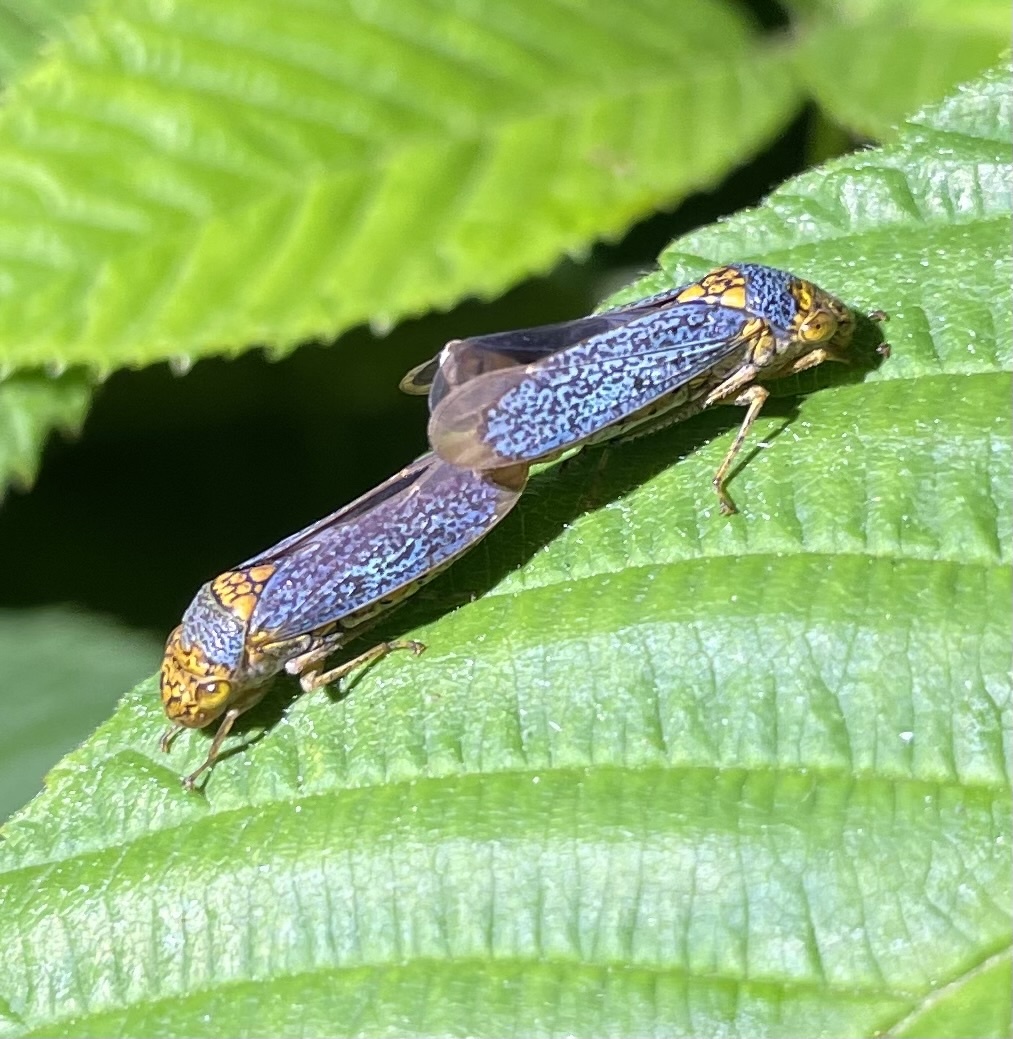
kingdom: Animalia
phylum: Arthropoda
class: Insecta
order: Hemiptera
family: Cicadellidae
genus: Oncometopia
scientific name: Oncometopia orbona
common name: Broad-headed sharpshooter
